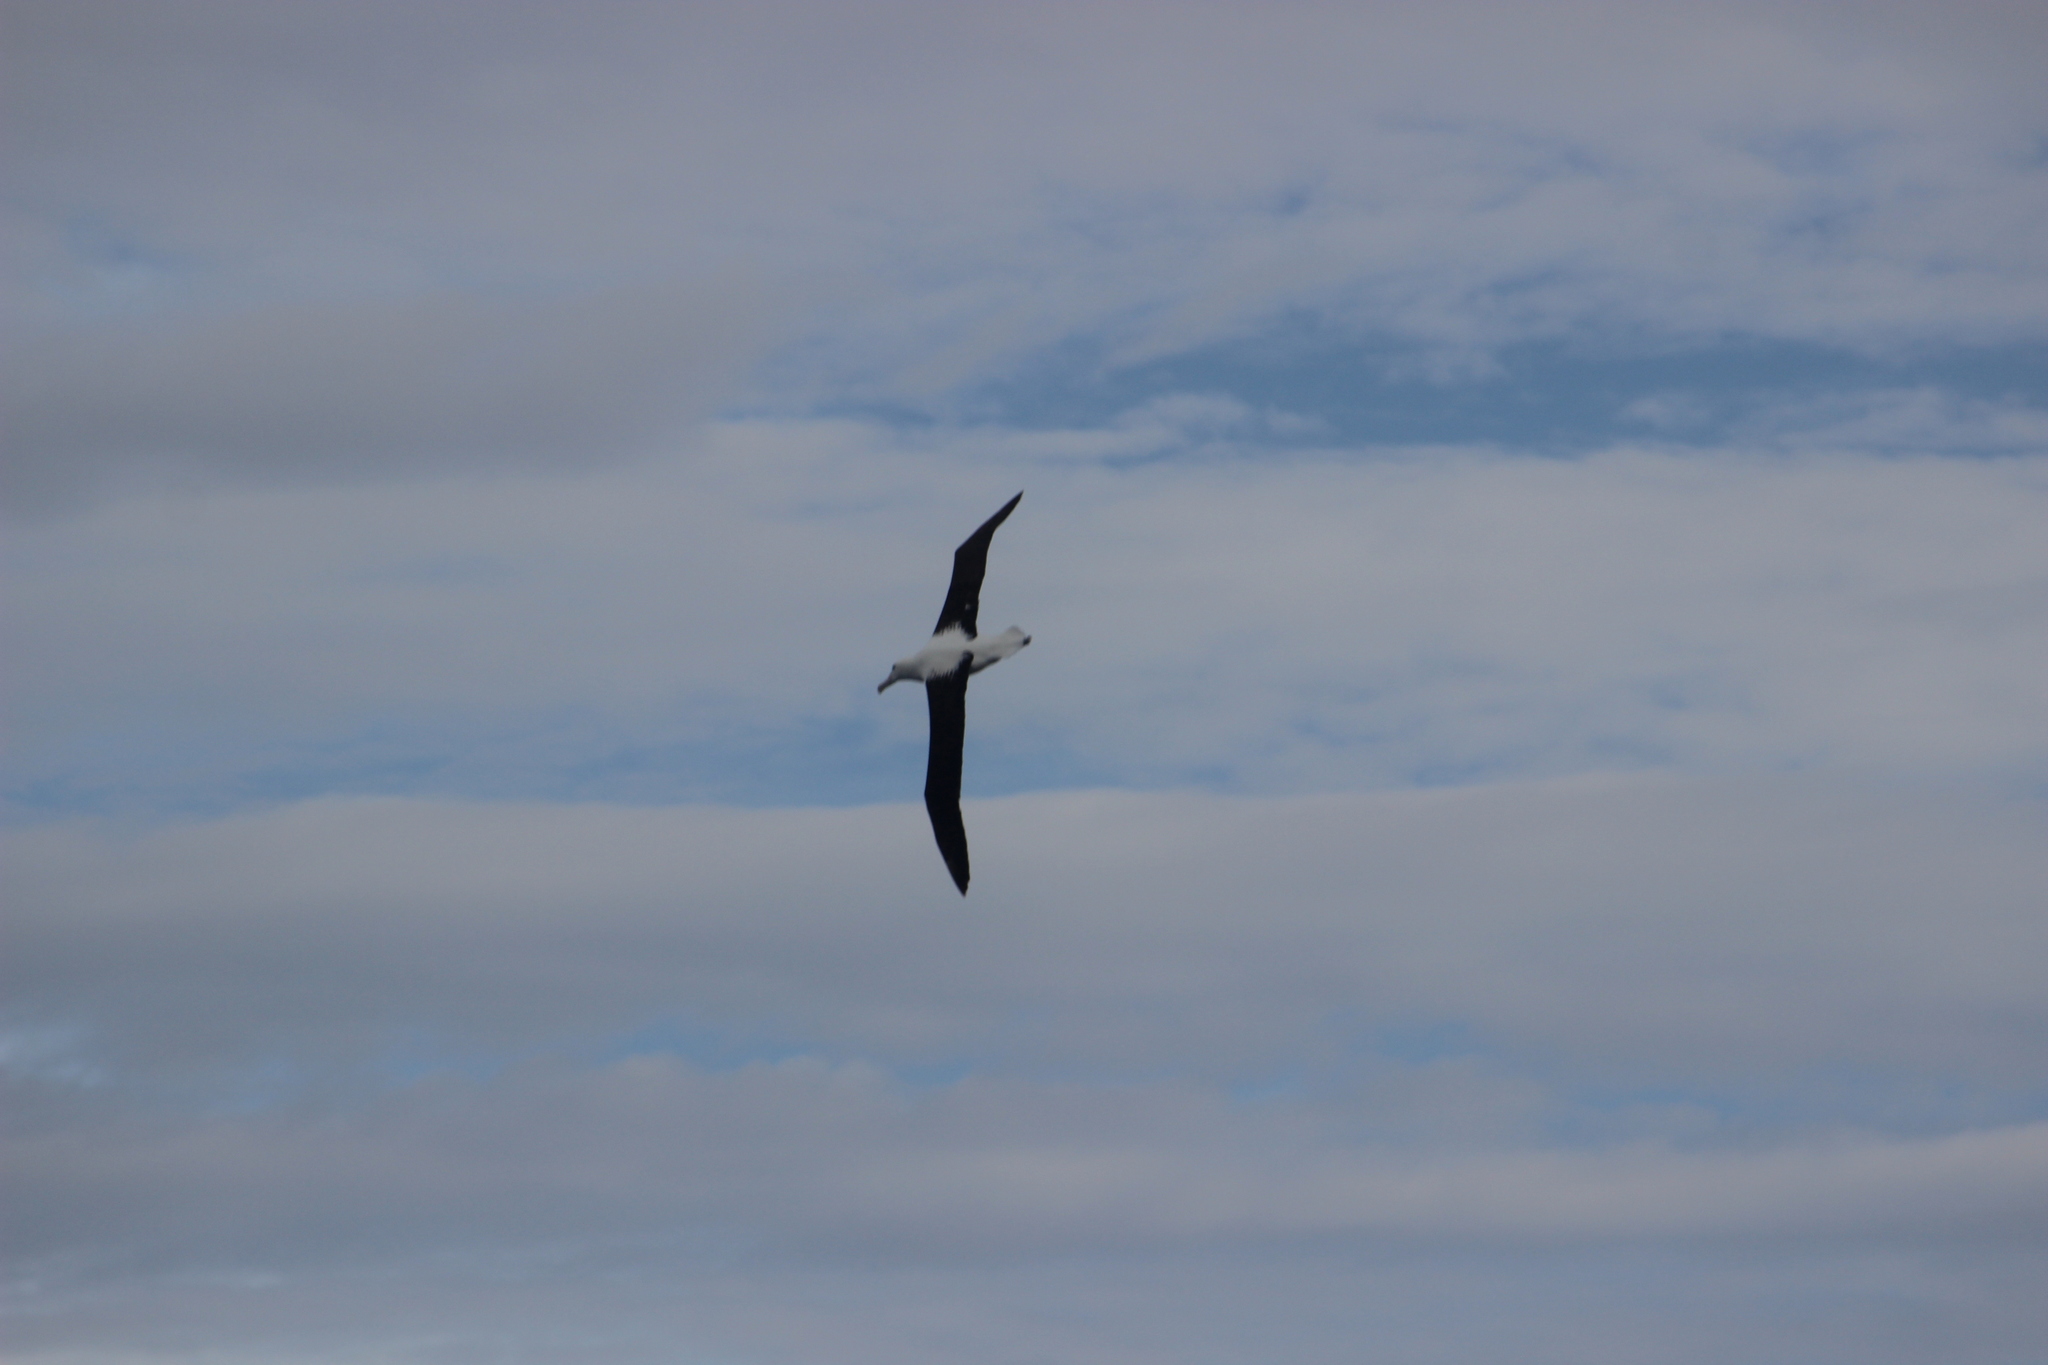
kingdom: Animalia
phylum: Chordata
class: Aves
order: Procellariiformes
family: Diomedeidae
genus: Diomedea
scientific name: Diomedea sanfordi
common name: Northern royal albatross
